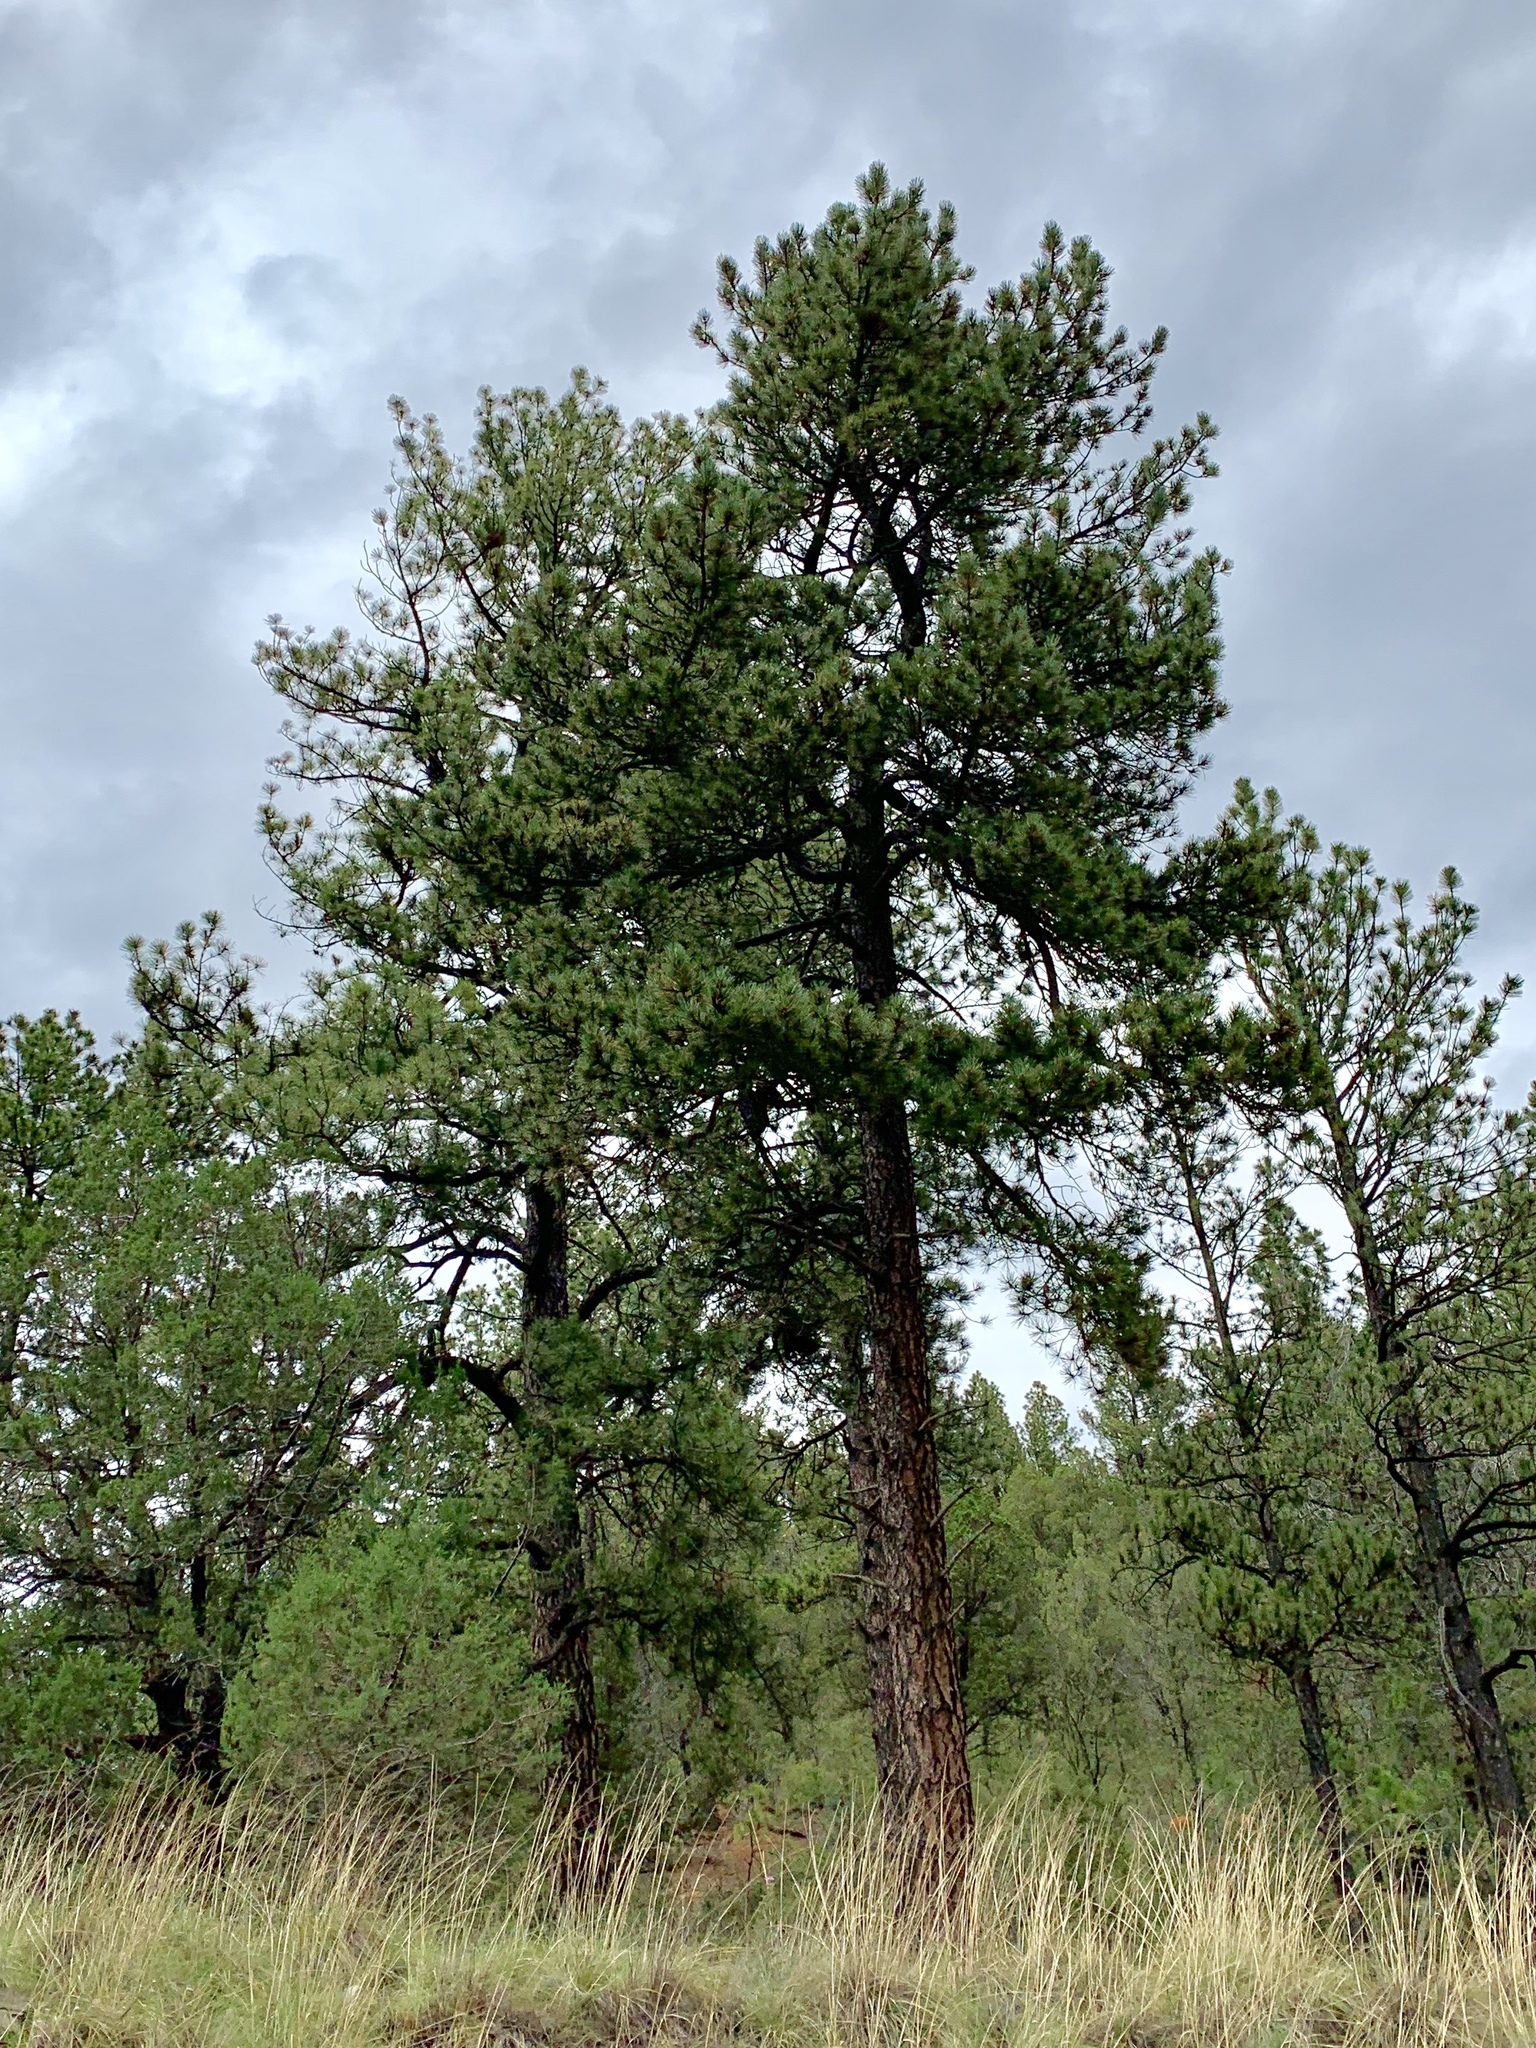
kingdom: Plantae
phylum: Tracheophyta
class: Pinopsida
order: Pinales
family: Pinaceae
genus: Pinus
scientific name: Pinus ponderosa
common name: Western yellow-pine
